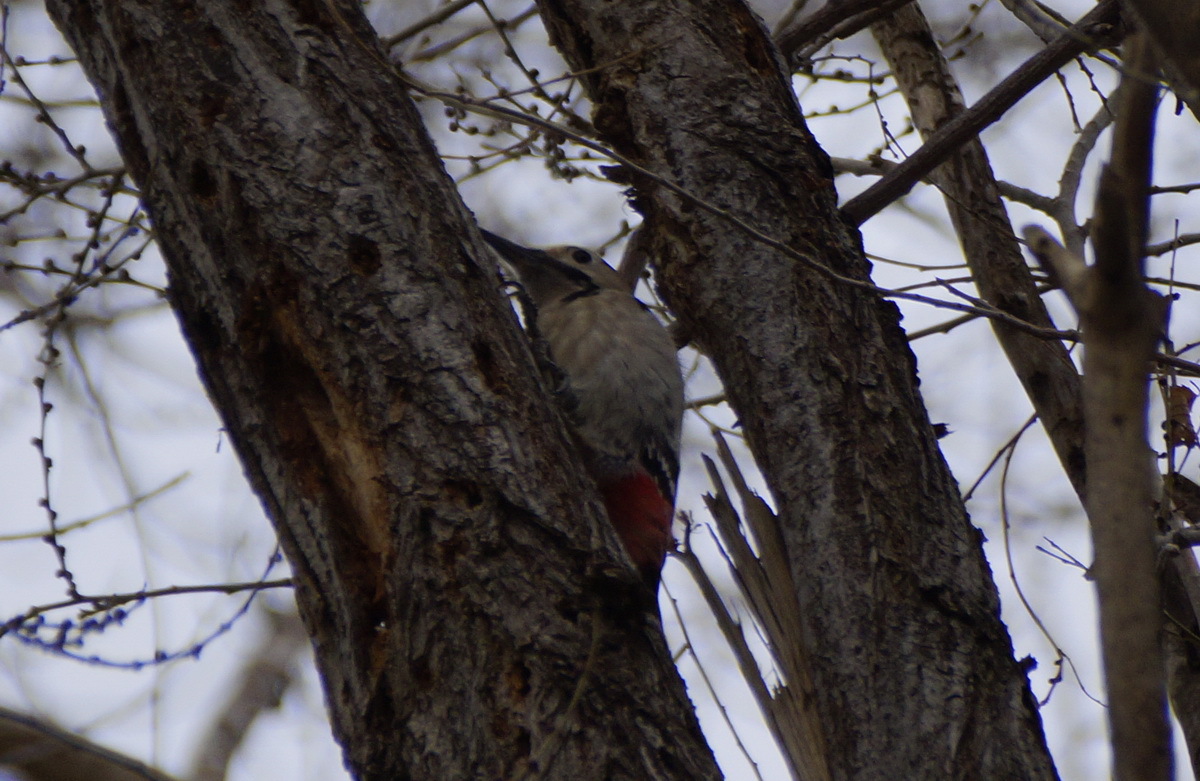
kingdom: Animalia
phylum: Chordata
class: Aves
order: Piciformes
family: Picidae
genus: Dendrocopos
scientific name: Dendrocopos syriacus
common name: Syrian woodpecker
